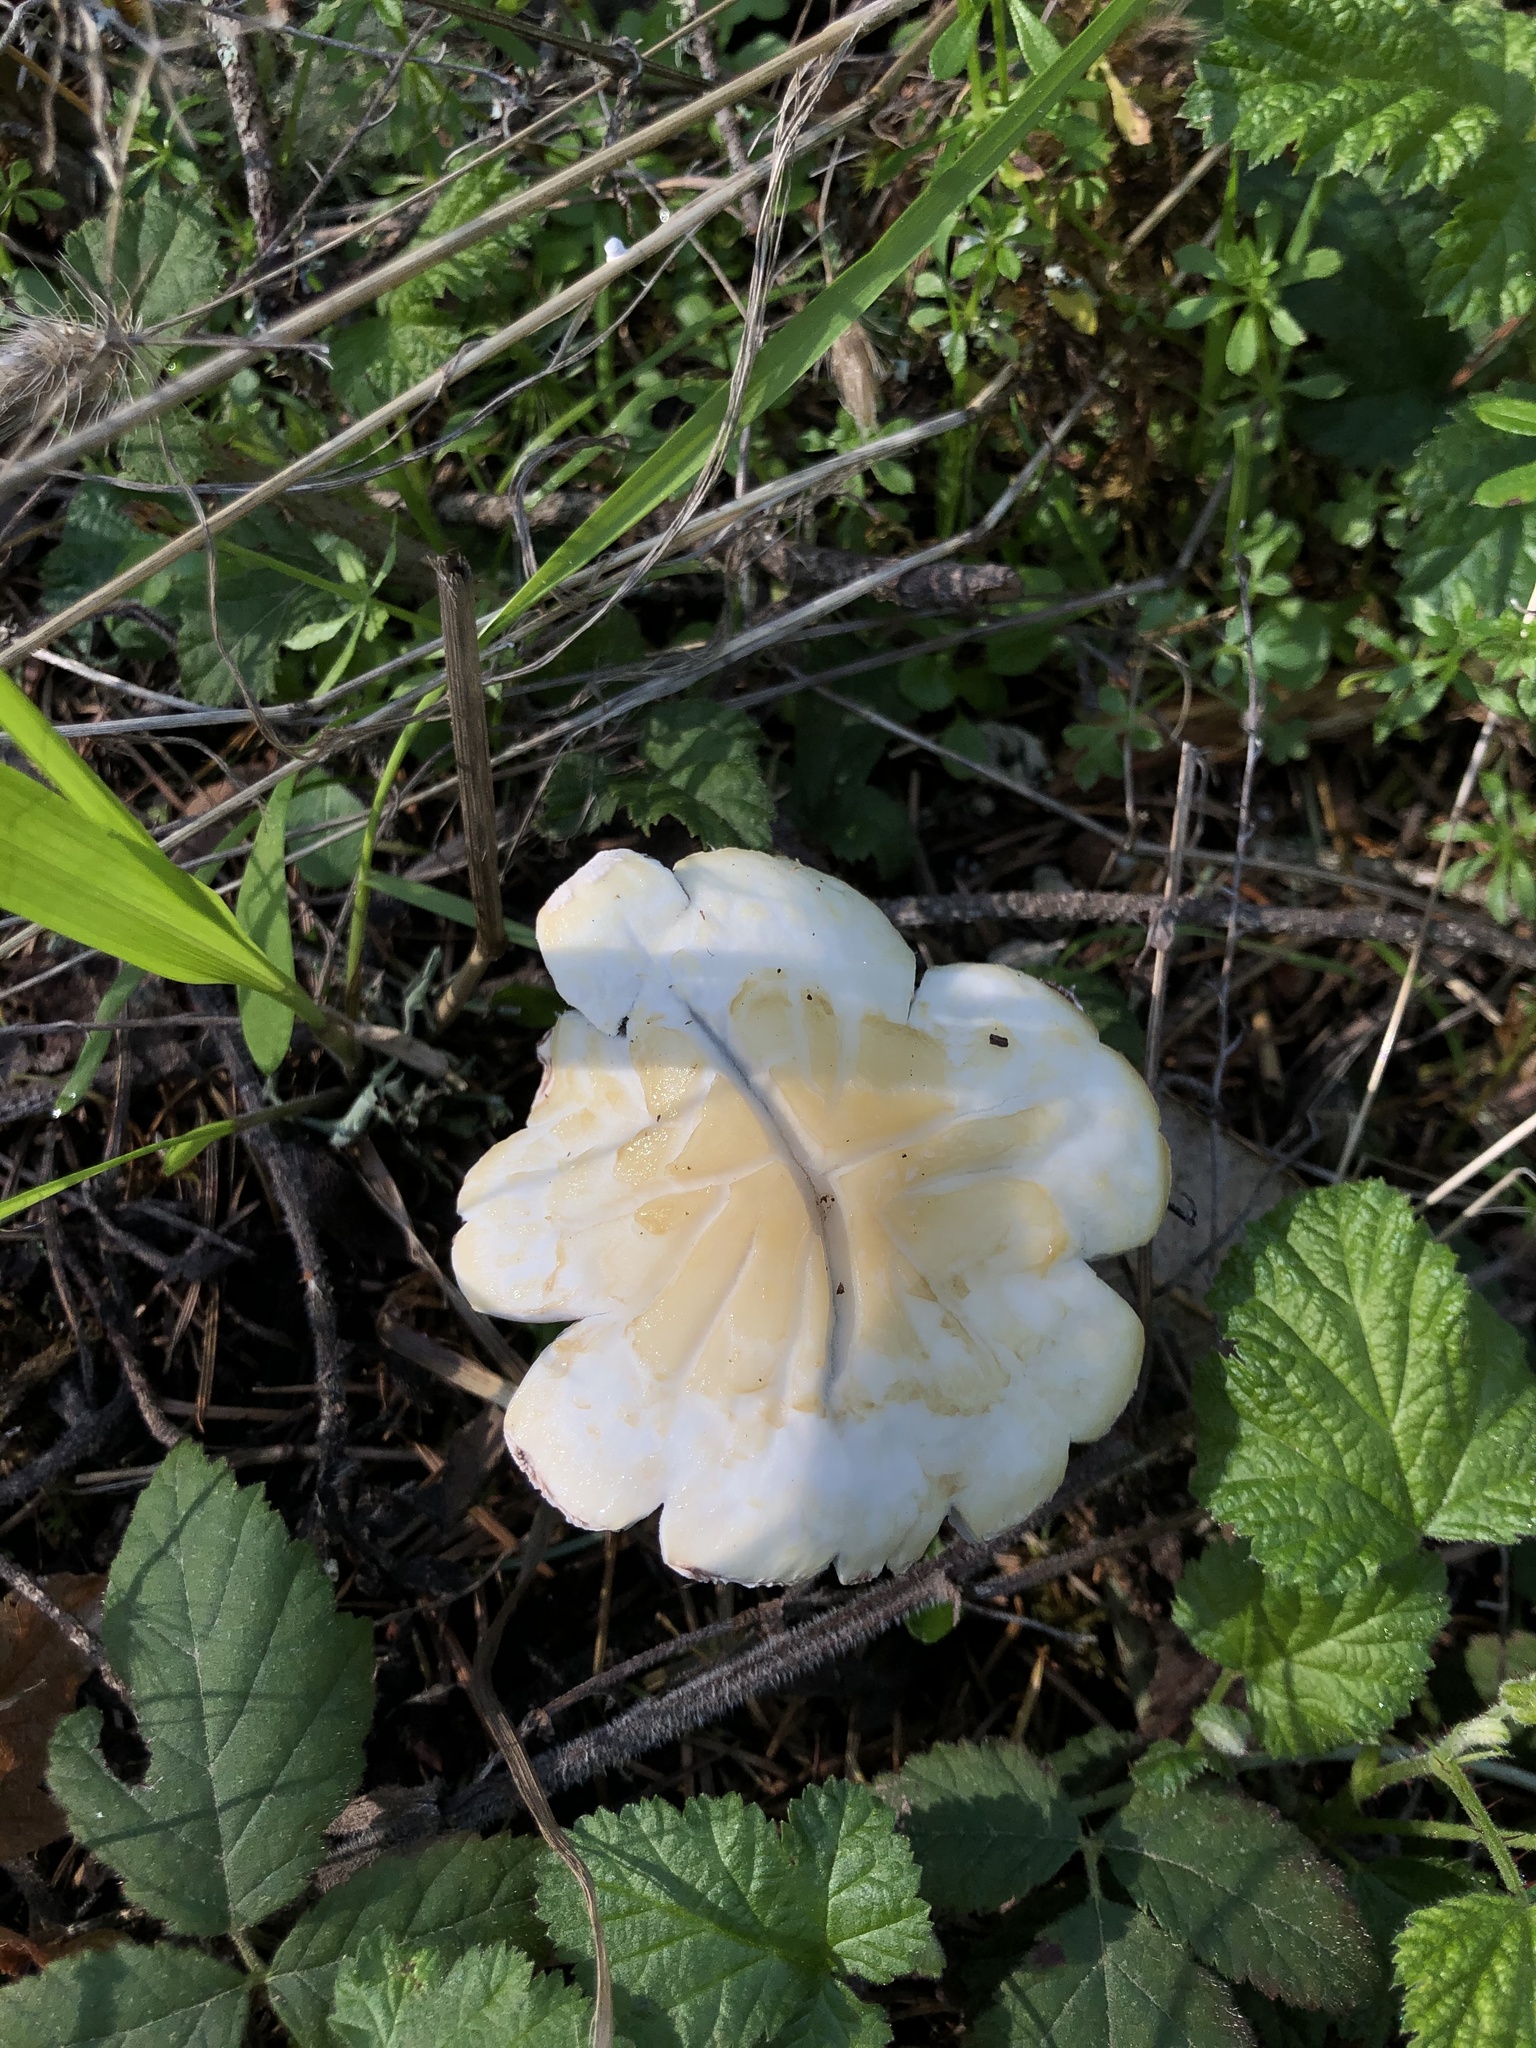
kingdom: Fungi
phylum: Basidiomycota
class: Agaricomycetes
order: Agaricales
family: Strophariaceae
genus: Stropharia
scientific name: Stropharia ambigua
